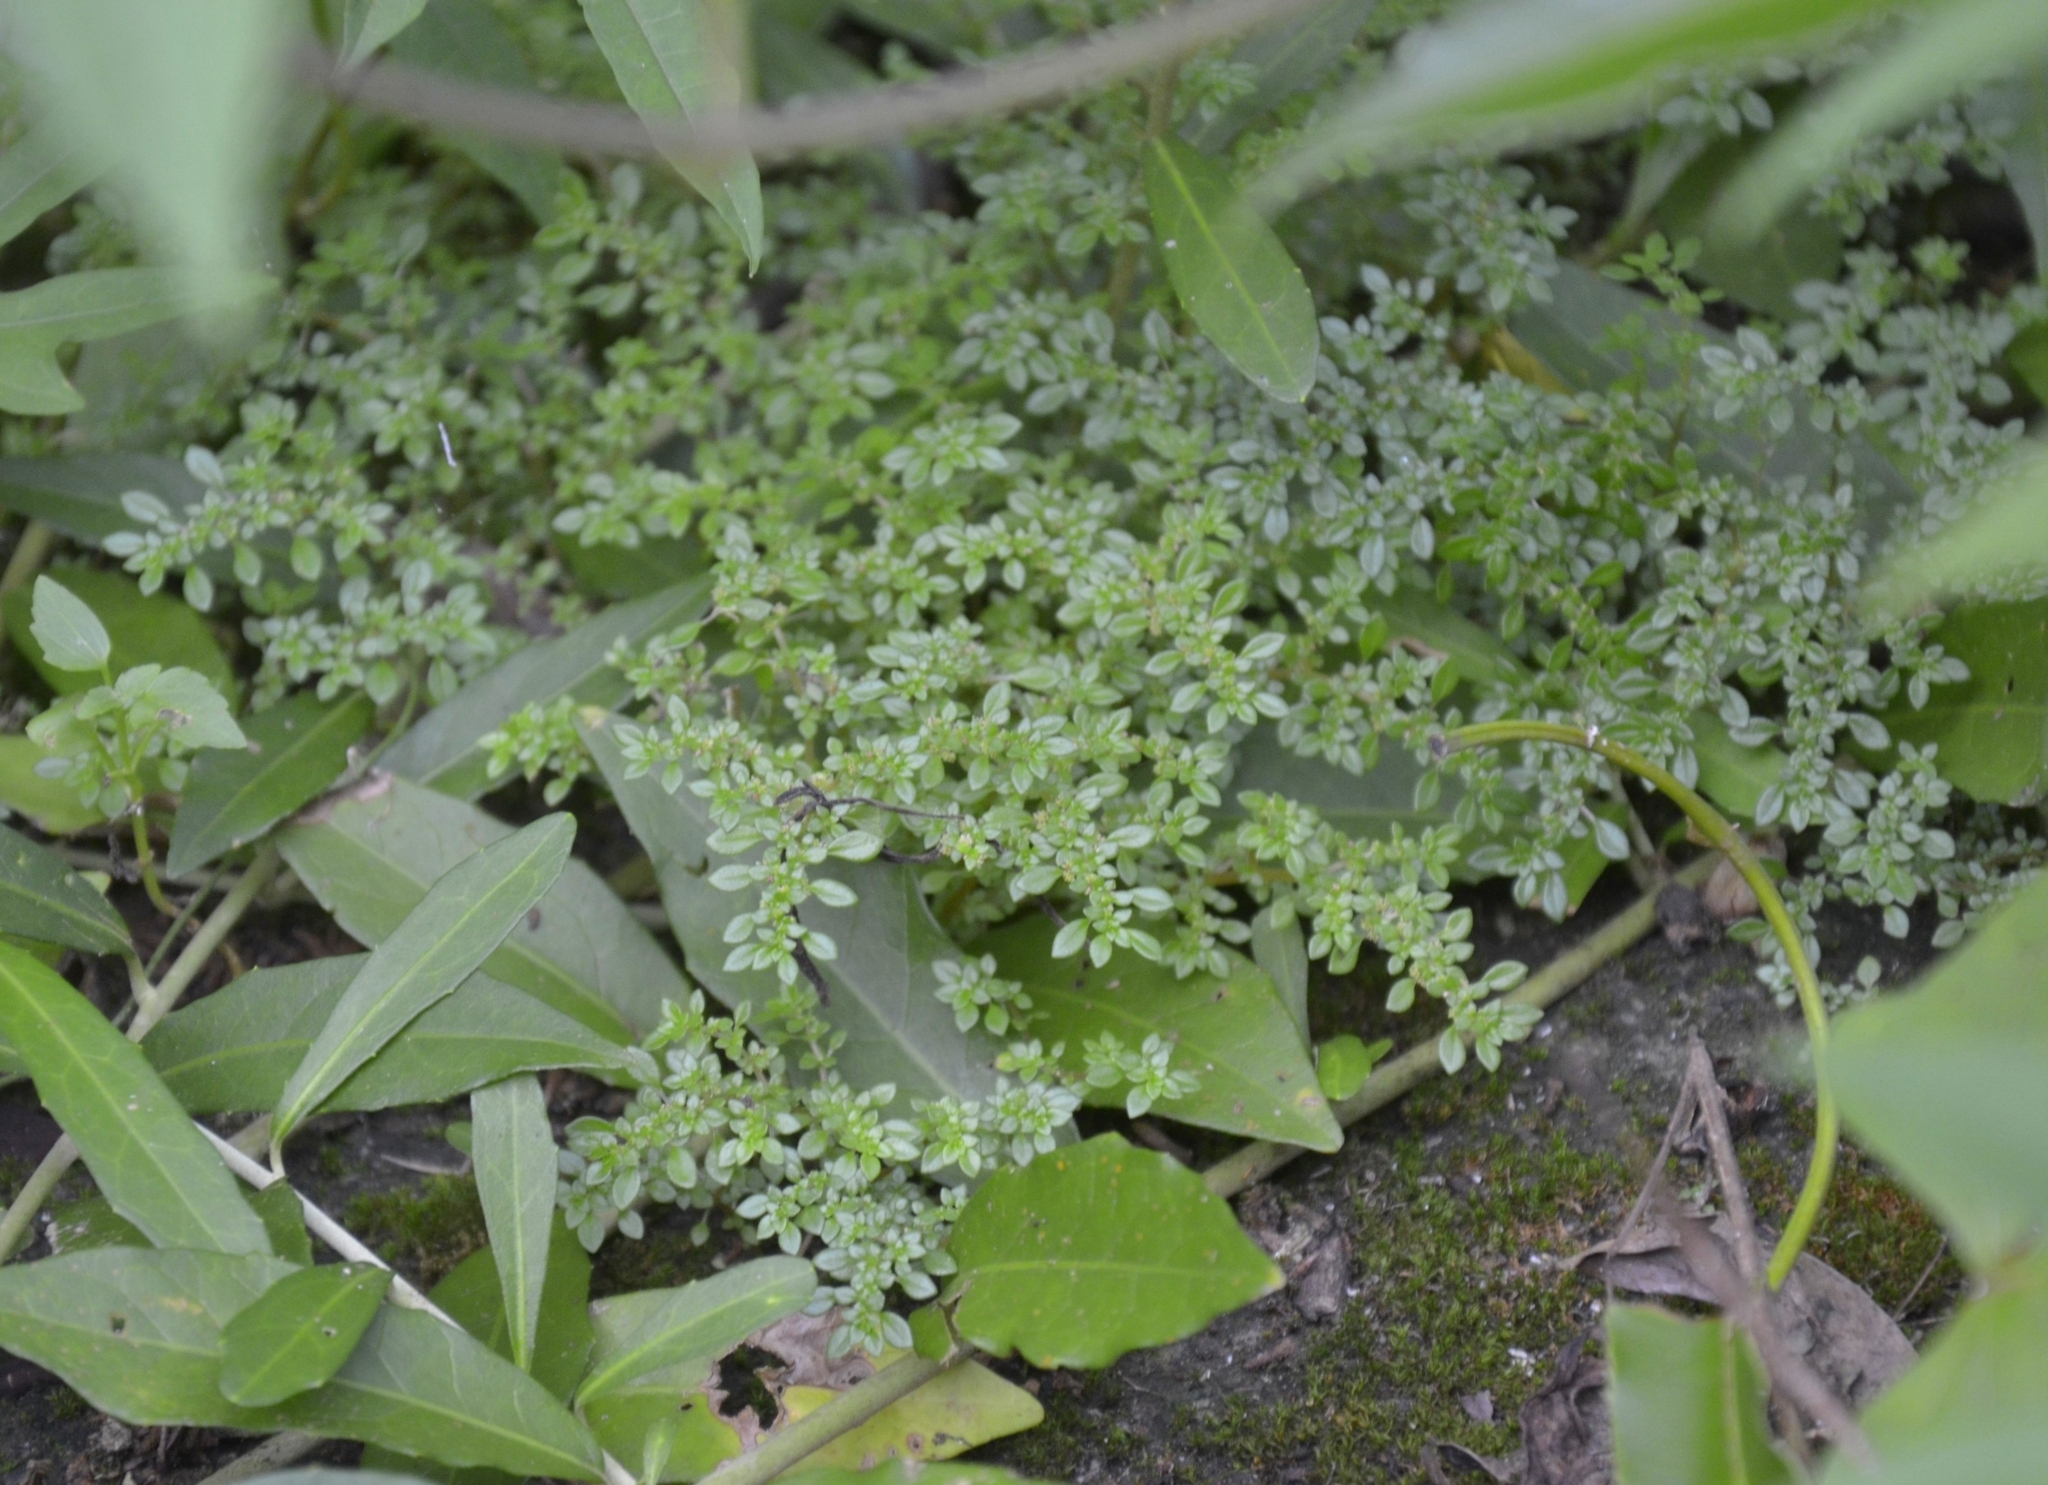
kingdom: Plantae
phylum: Tracheophyta
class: Magnoliopsida
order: Rosales
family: Urticaceae
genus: Pilea
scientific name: Pilea microphylla
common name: Artillery-plant
